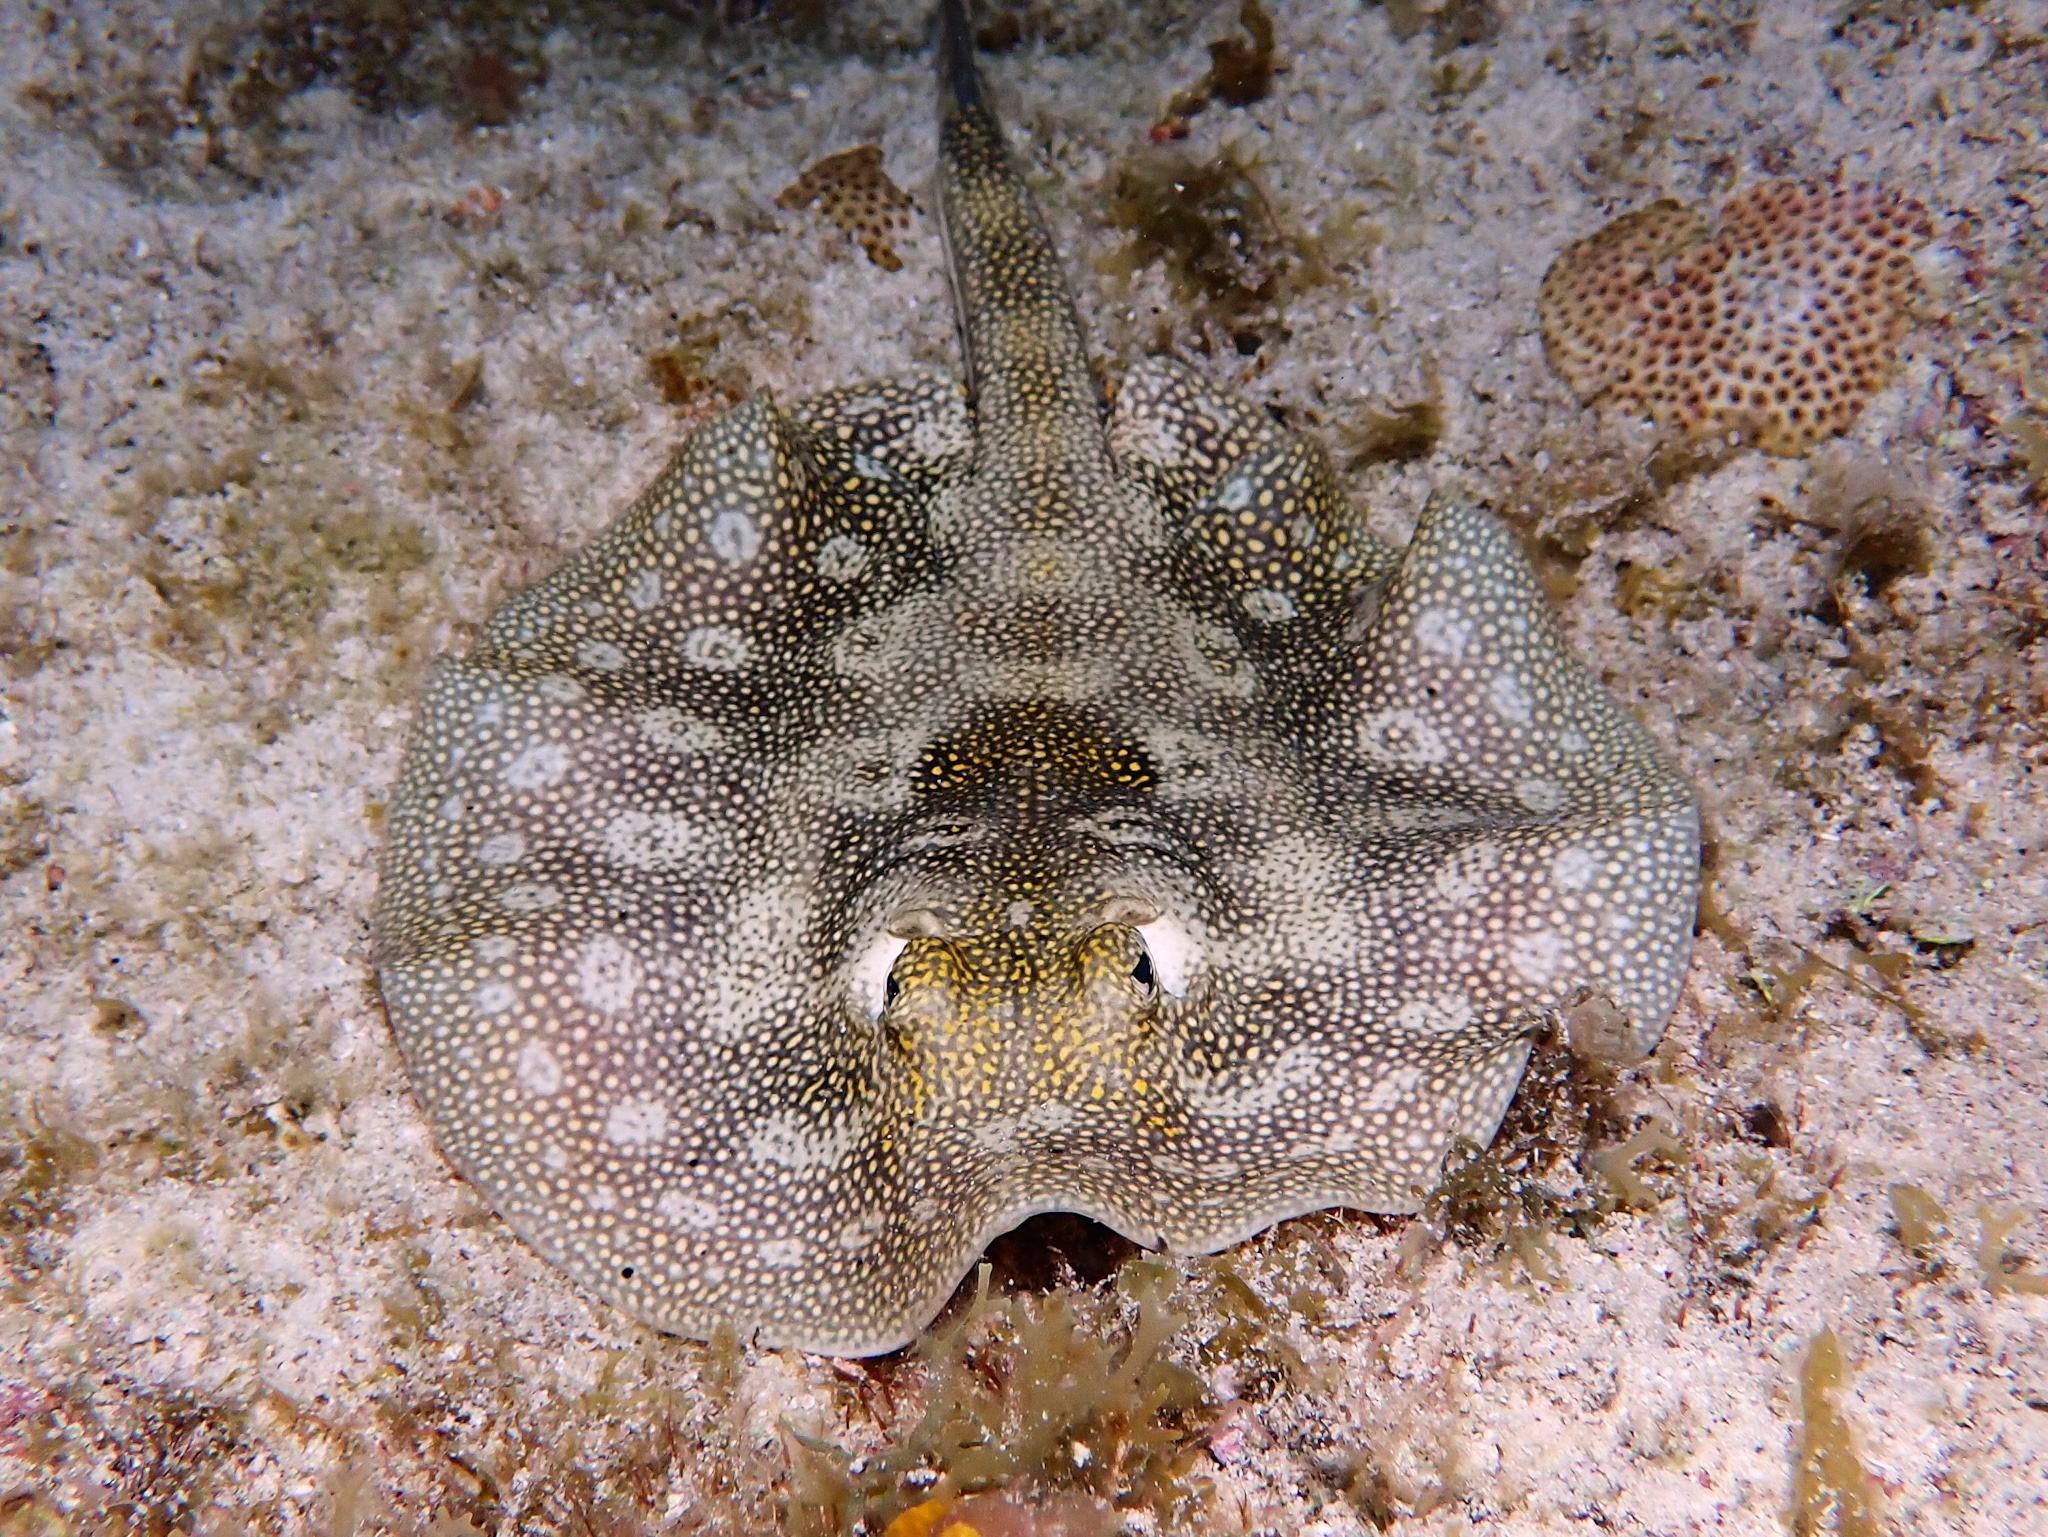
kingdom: Animalia
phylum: Chordata
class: Elasmobranchii
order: Myliobatiformes
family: Urotrygonidae
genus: Urobatis
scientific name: Urobatis jamaicensis
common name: Yellow stingray
